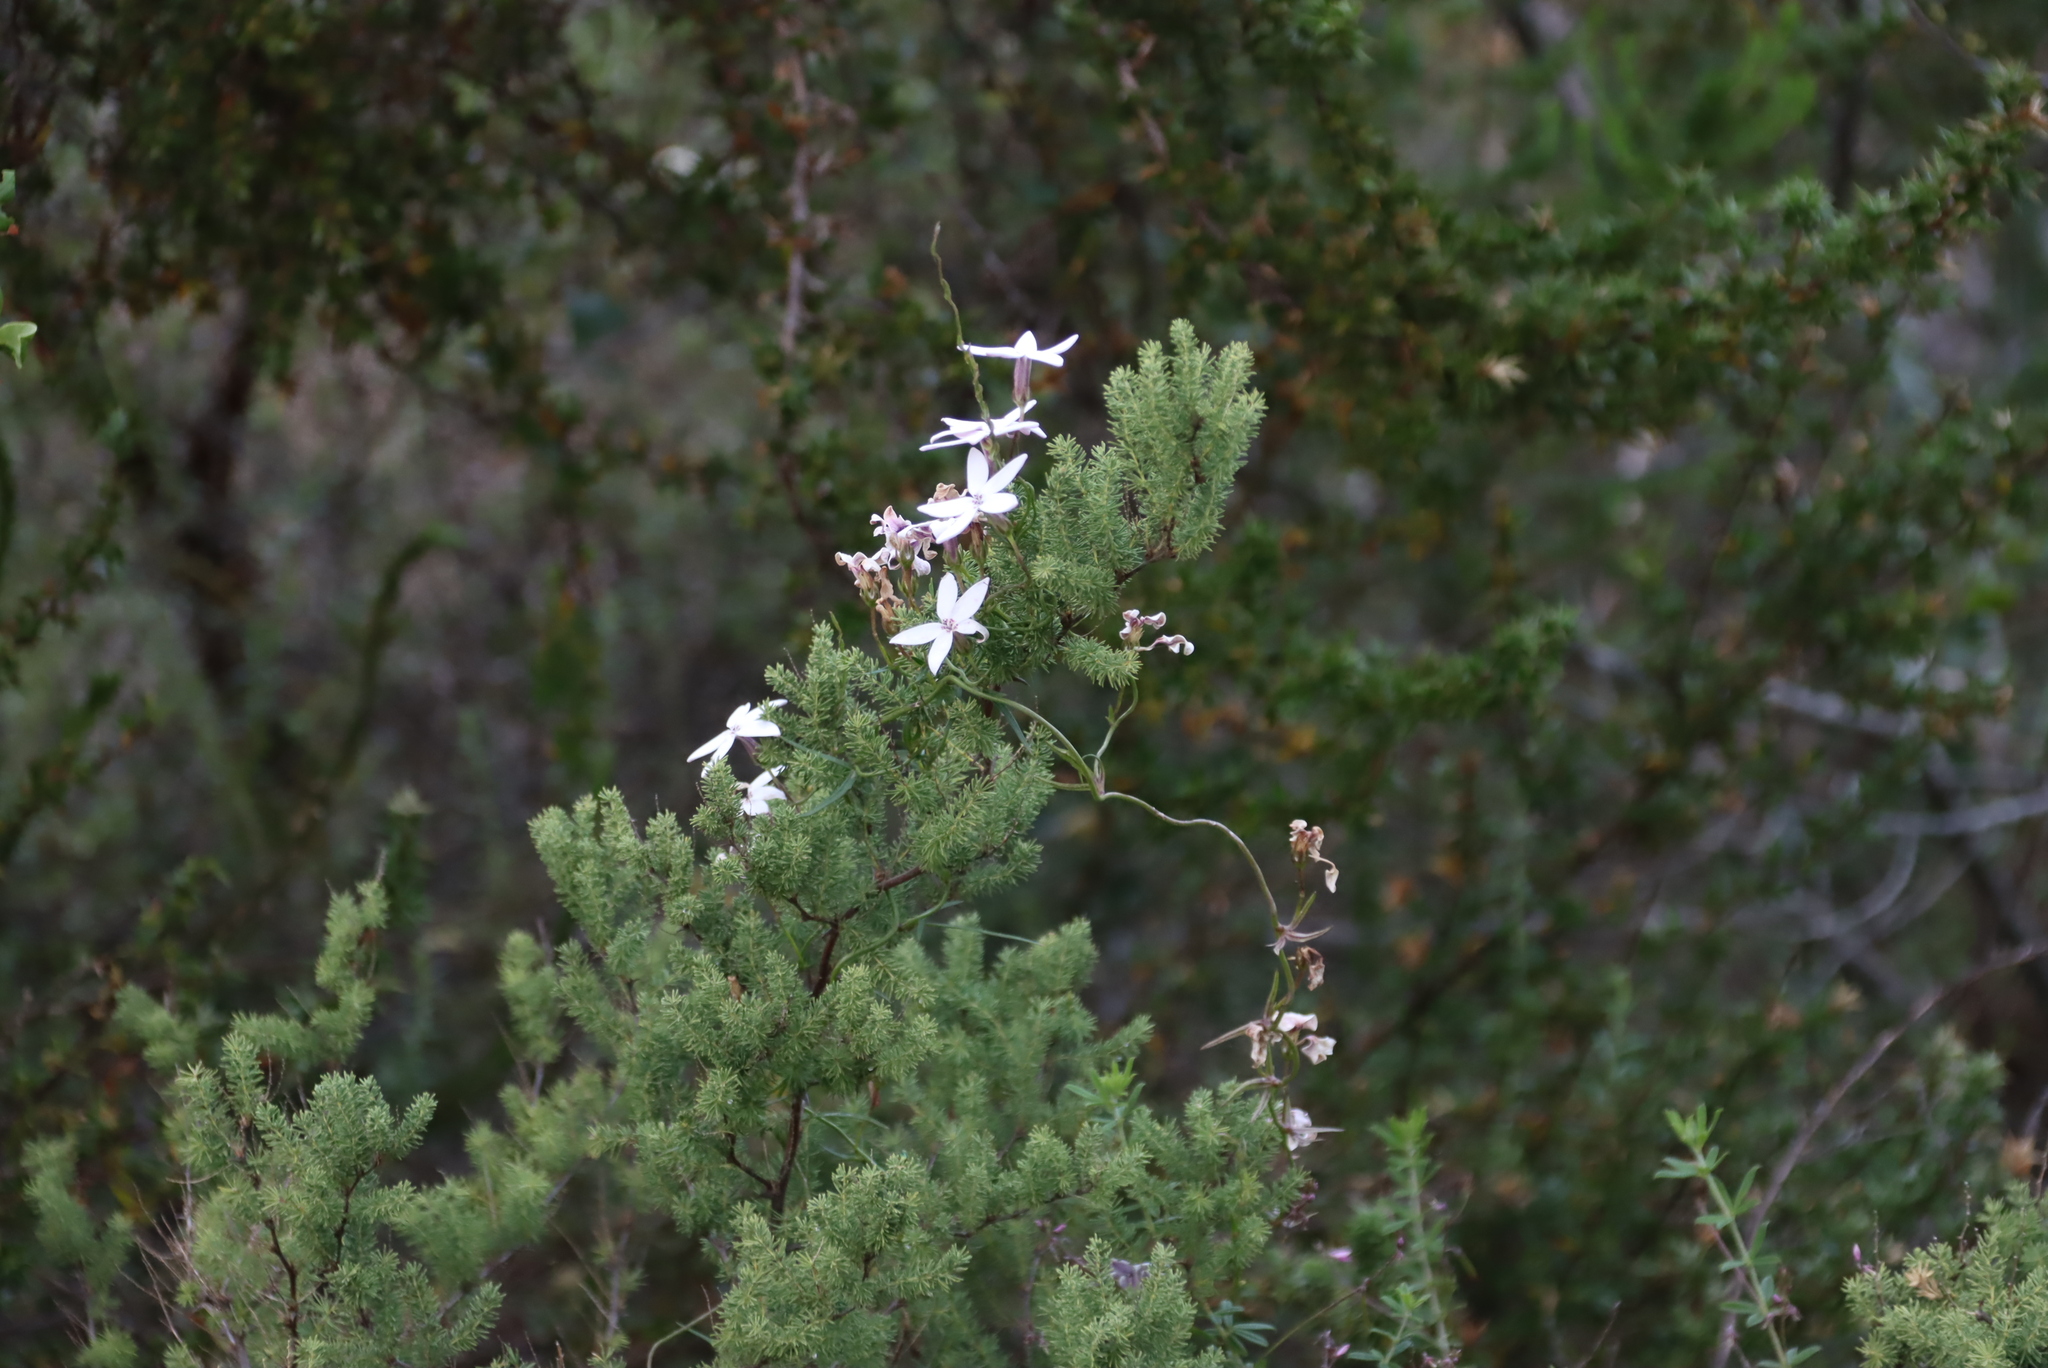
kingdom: Plantae
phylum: Tracheophyta
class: Liliopsida
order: Asparagales
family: Asparagaceae
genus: Asparagus
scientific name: Asparagus rubicundus
